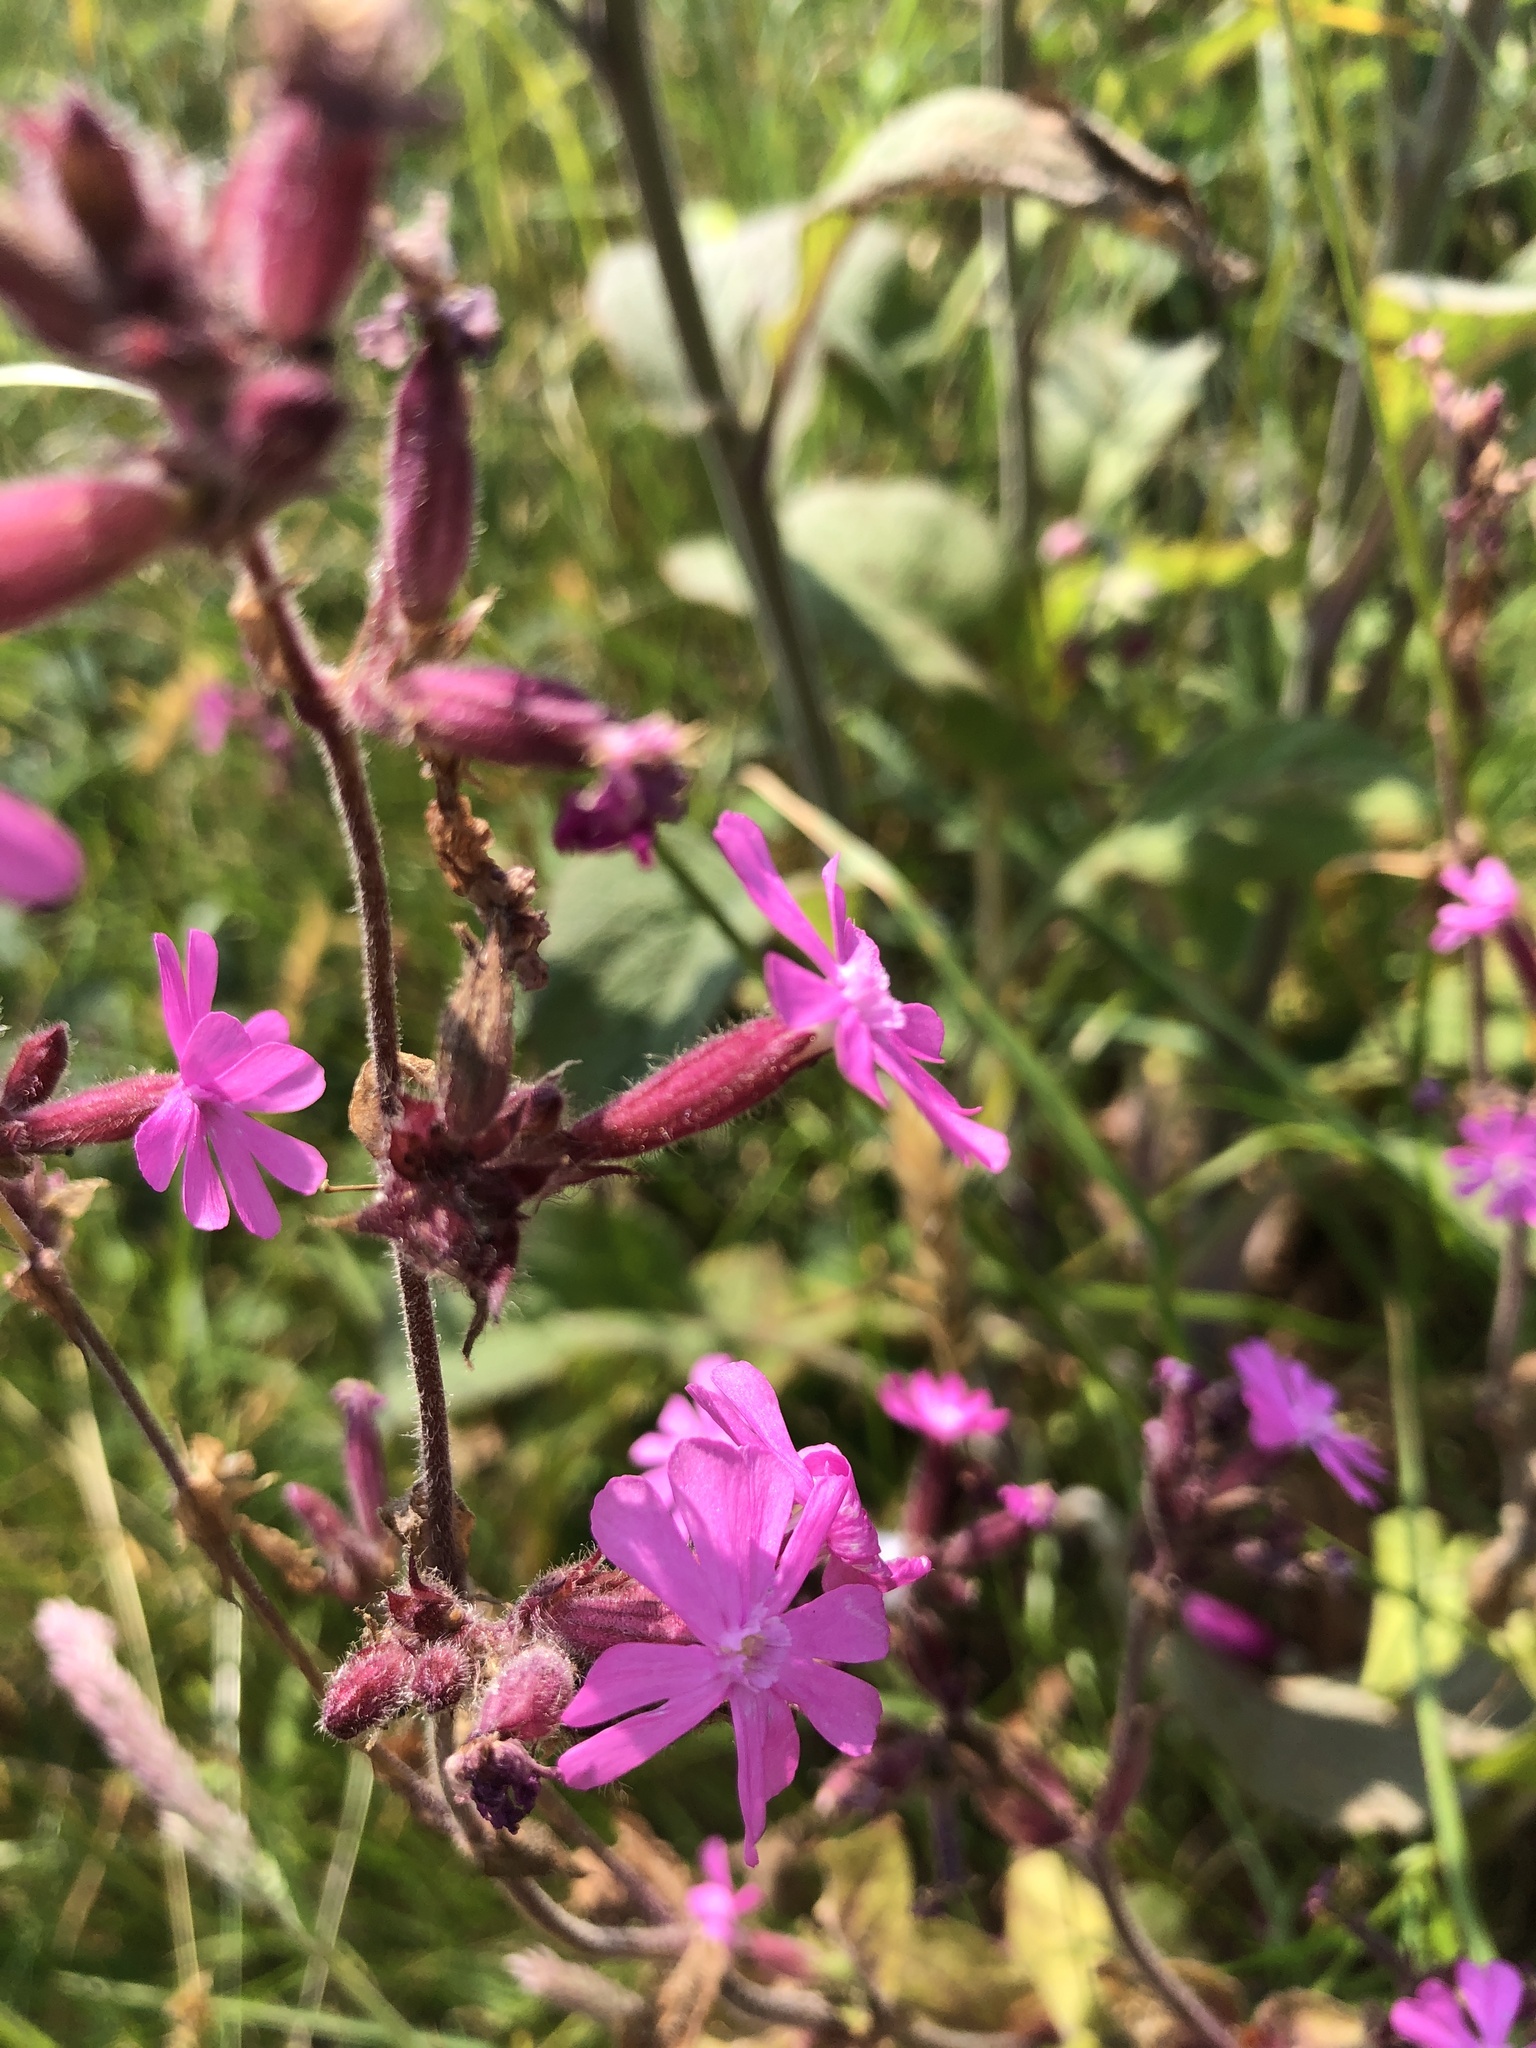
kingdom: Plantae
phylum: Tracheophyta
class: Magnoliopsida
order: Caryophyllales
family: Caryophyllaceae
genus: Silene
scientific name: Silene dioica
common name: Red campion
